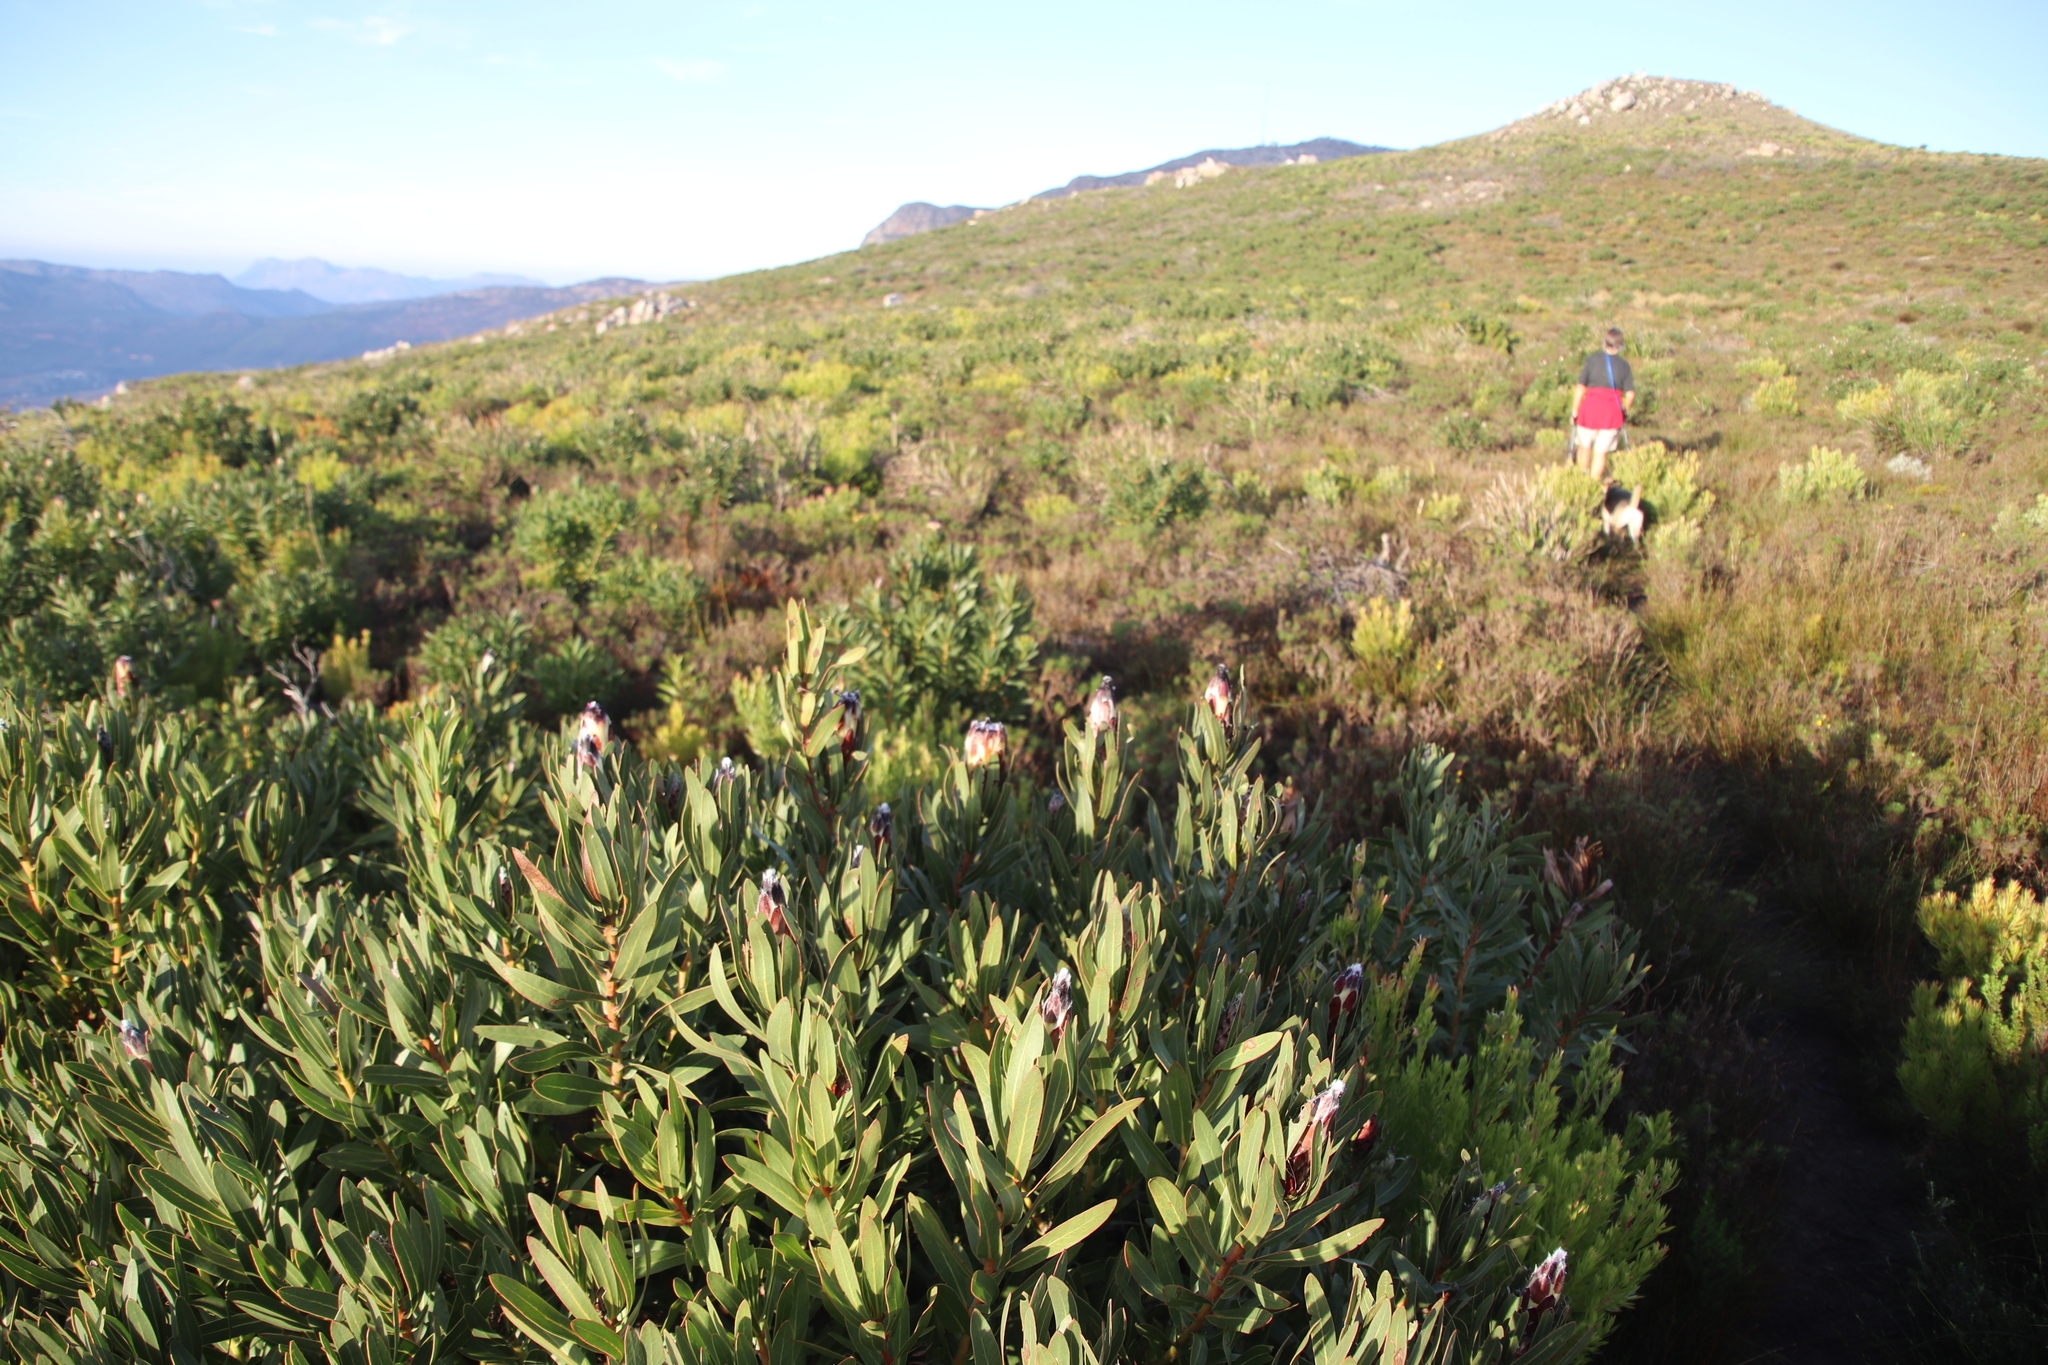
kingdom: Plantae
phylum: Tracheophyta
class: Magnoliopsida
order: Proteales
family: Proteaceae
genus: Protea
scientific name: Protea lepidocarpodendron
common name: Black-bearded protea
